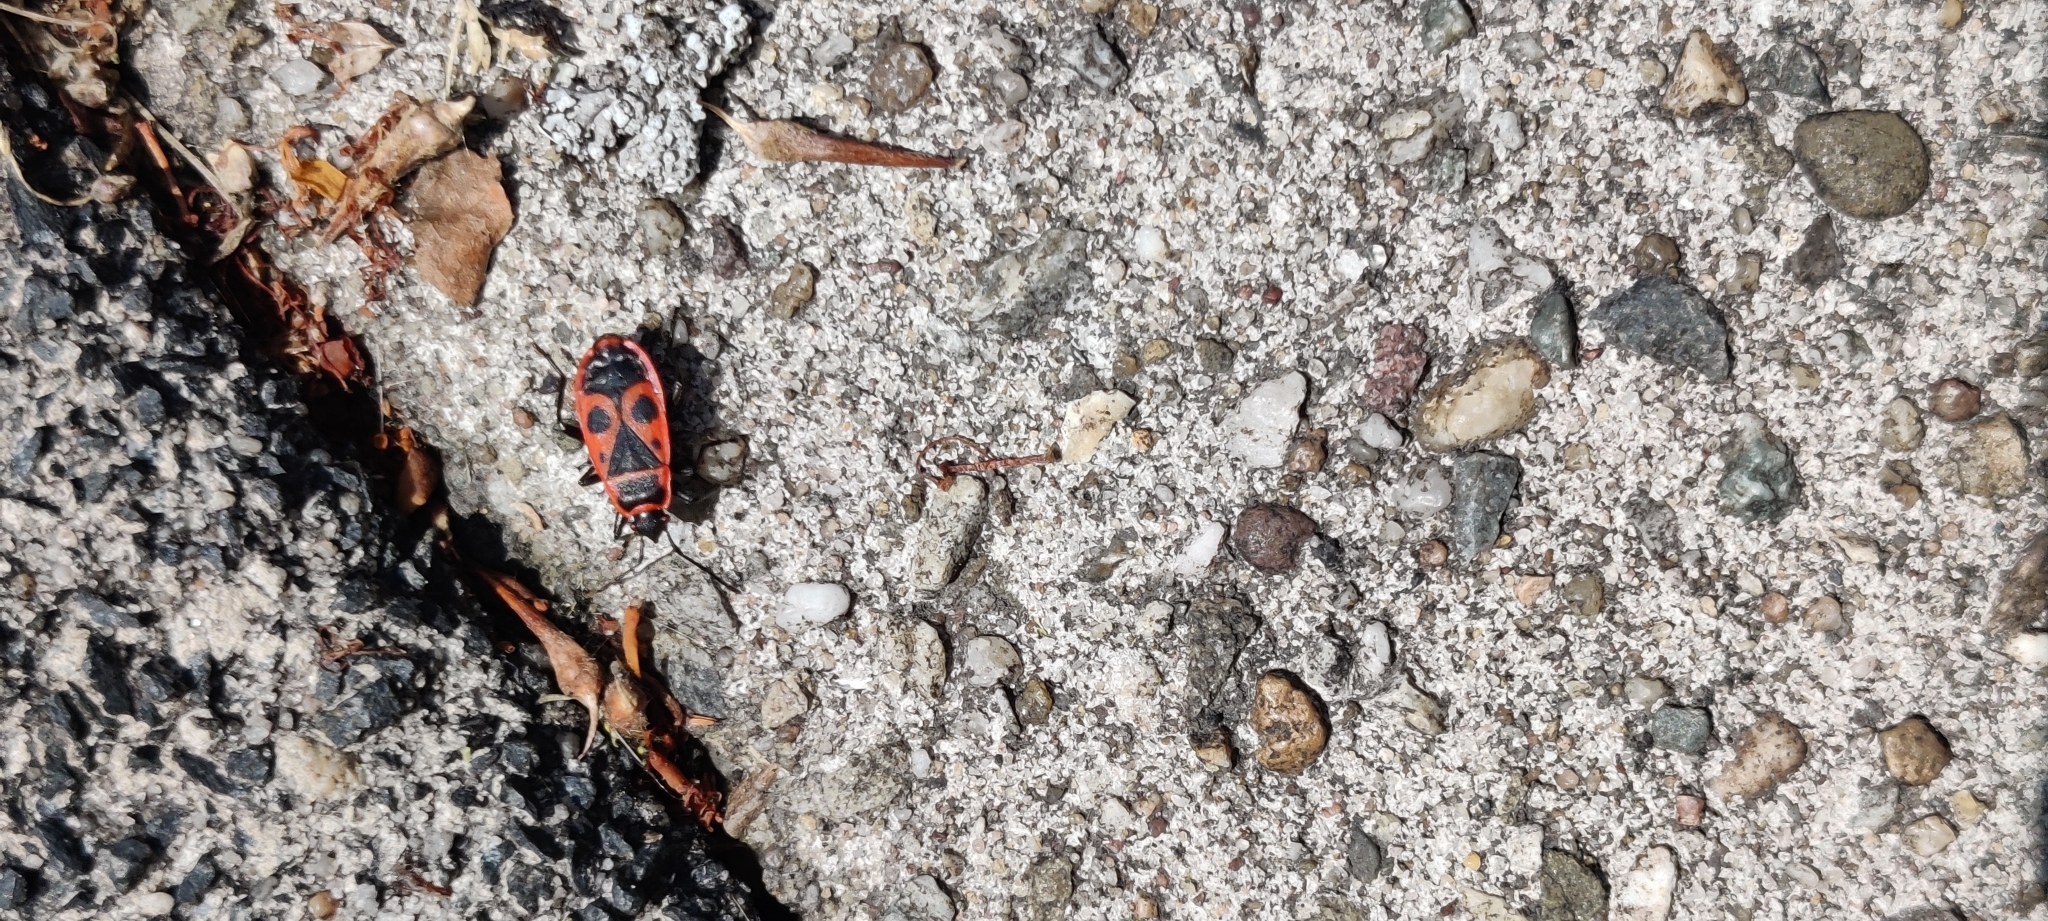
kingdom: Animalia
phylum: Arthropoda
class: Insecta
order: Hemiptera
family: Pyrrhocoridae
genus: Pyrrhocoris
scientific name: Pyrrhocoris apterus
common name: Firebug
